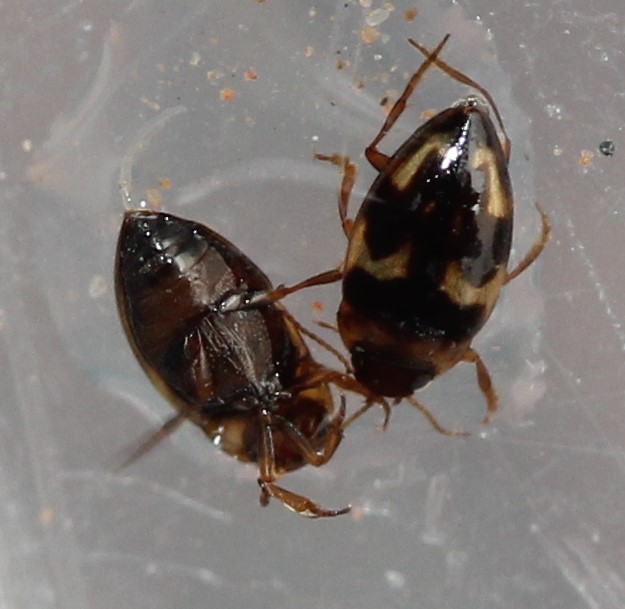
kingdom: Animalia
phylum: Arthropoda
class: Insecta
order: Coleoptera
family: Dytiscidae
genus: Neoclypeodytes
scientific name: Neoclypeodytes cinctellus
